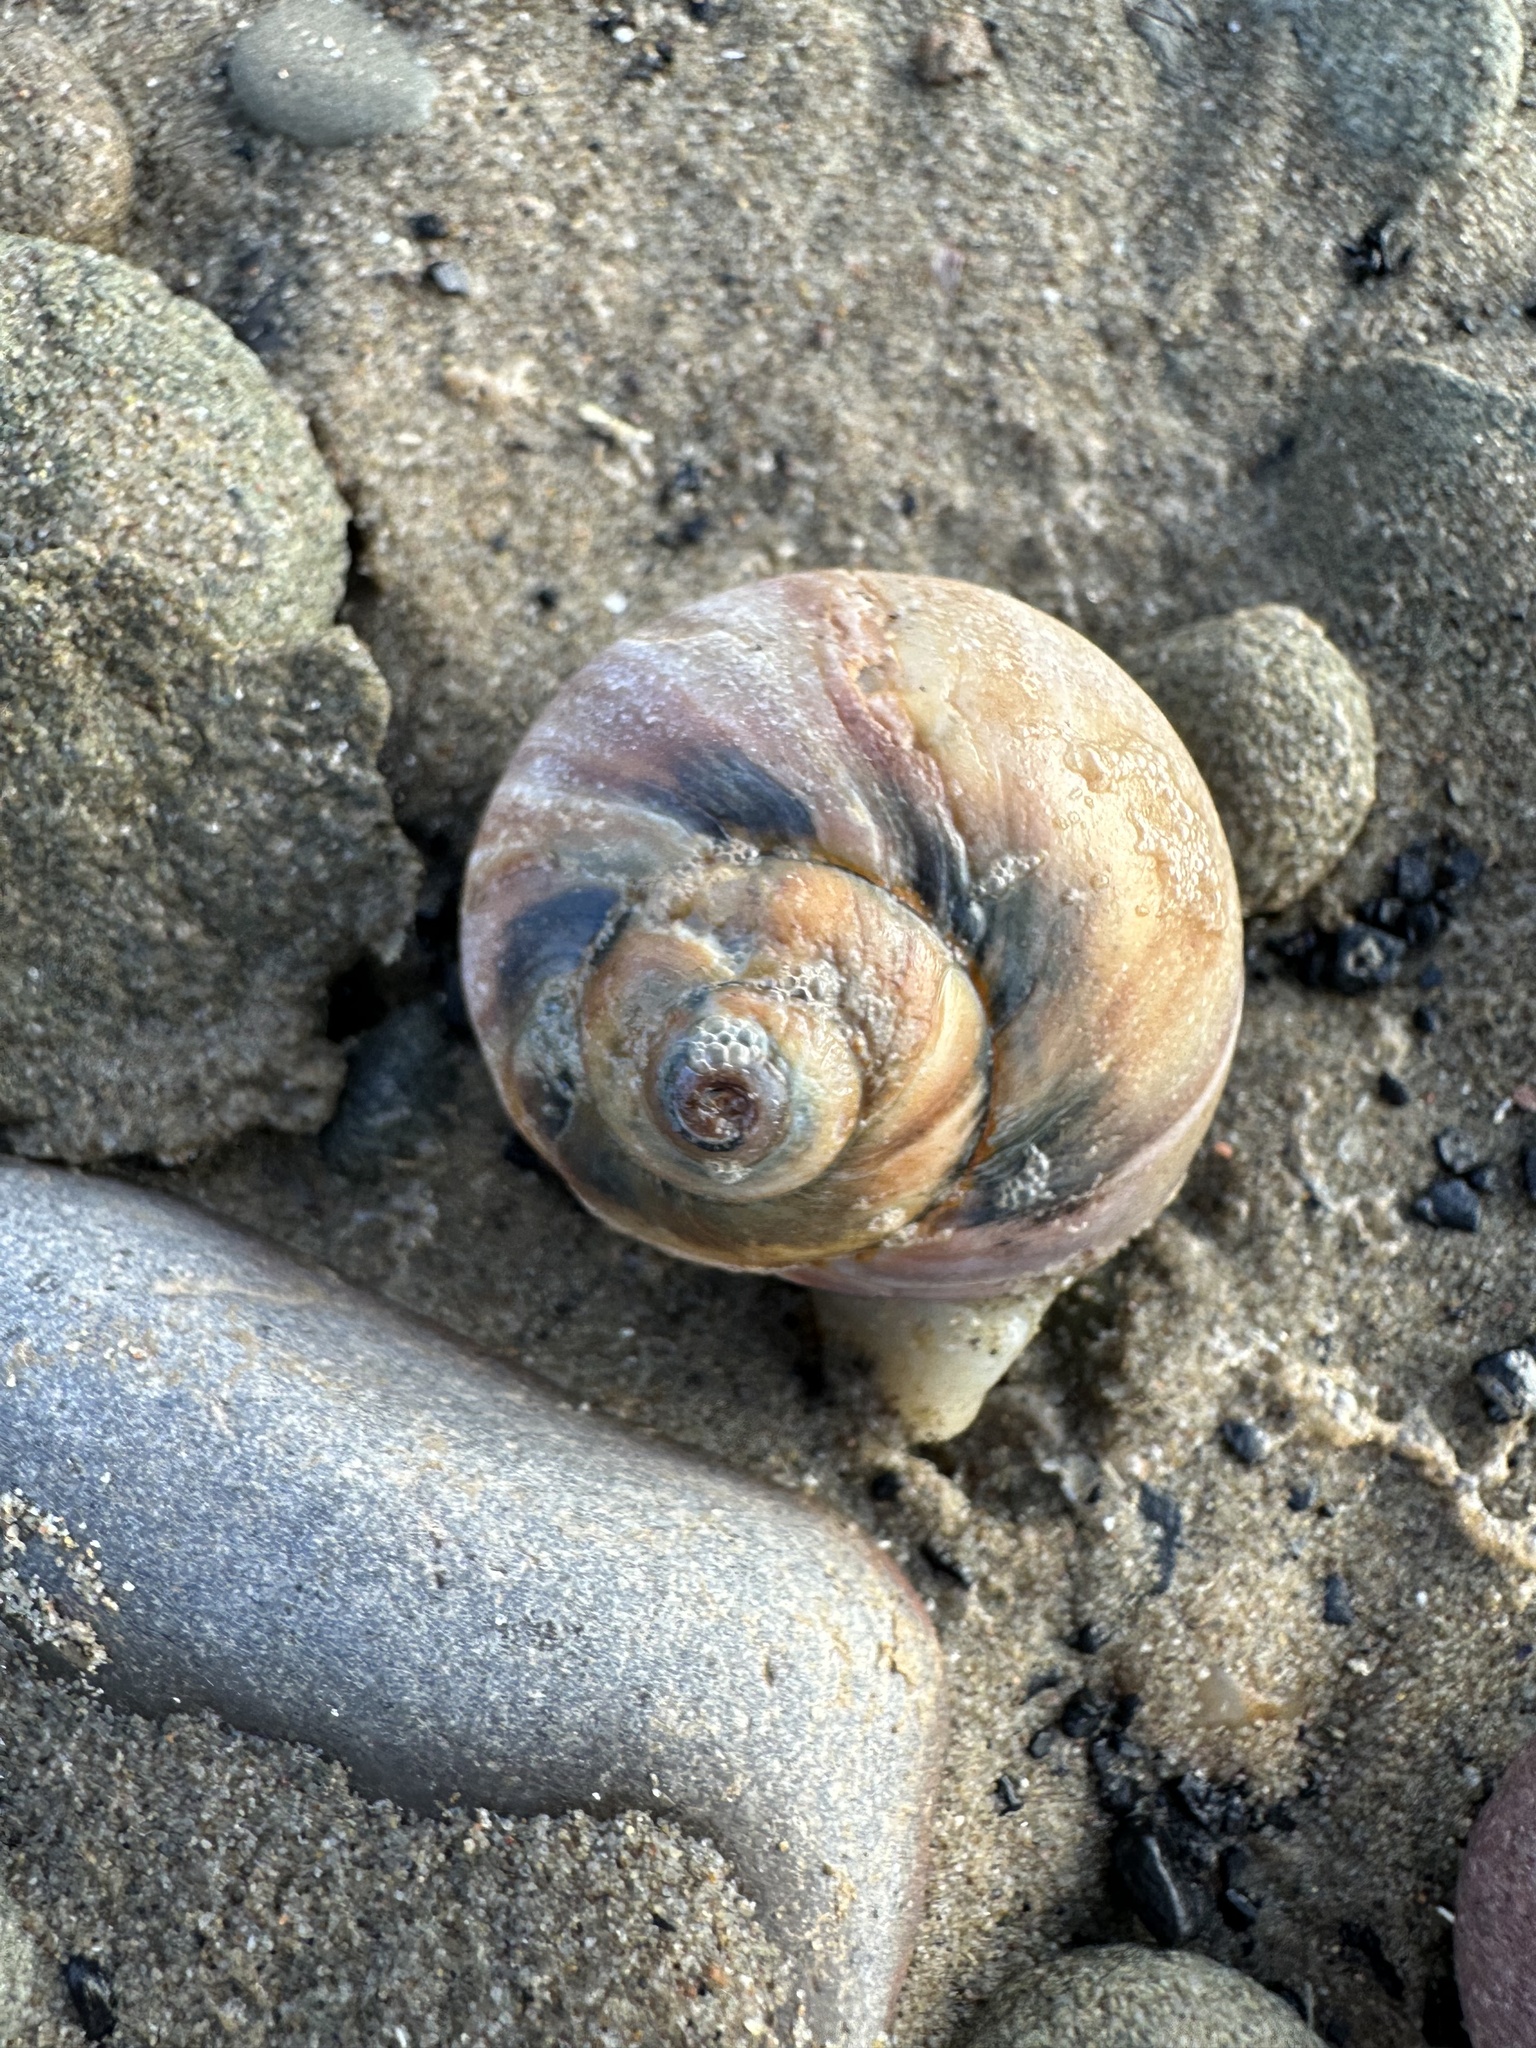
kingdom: Animalia
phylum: Mollusca
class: Gastropoda
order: Littorinimorpha
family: Naticidae
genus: Euspira
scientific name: Euspira heros
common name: Common northern moonsnail
